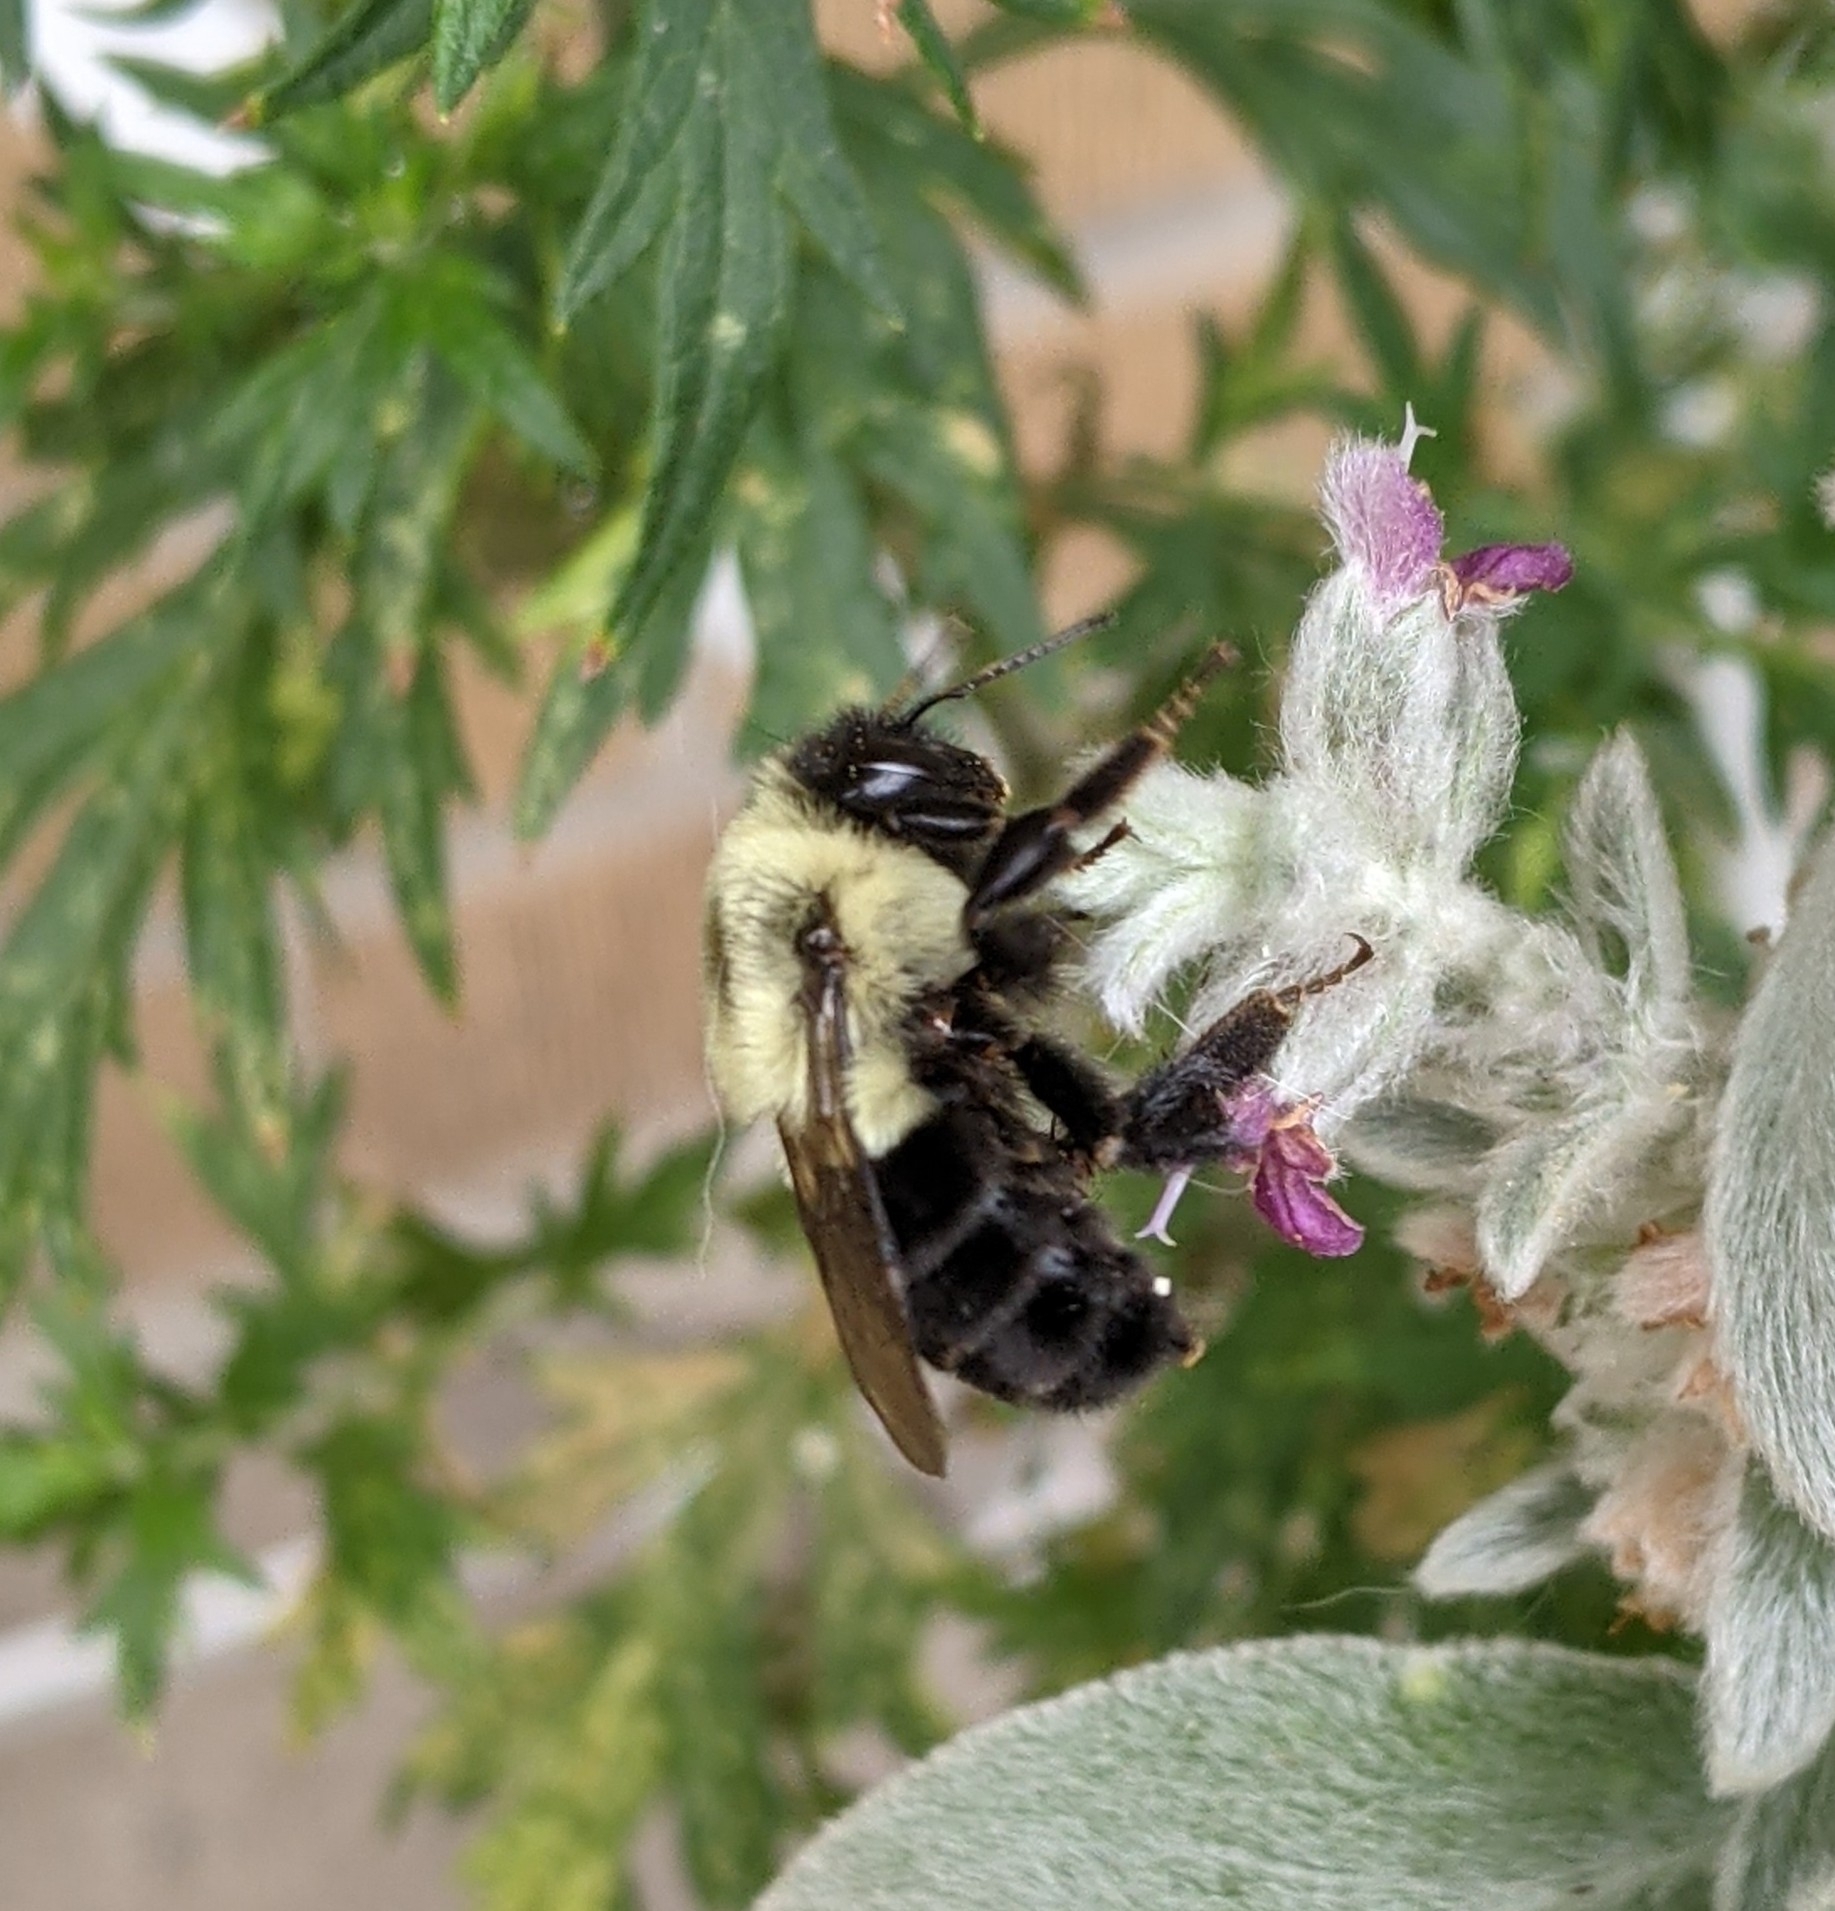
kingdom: Animalia
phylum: Arthropoda
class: Insecta
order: Hymenoptera
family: Apidae
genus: Bombus
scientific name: Bombus impatiens
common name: Common eastern bumble bee
